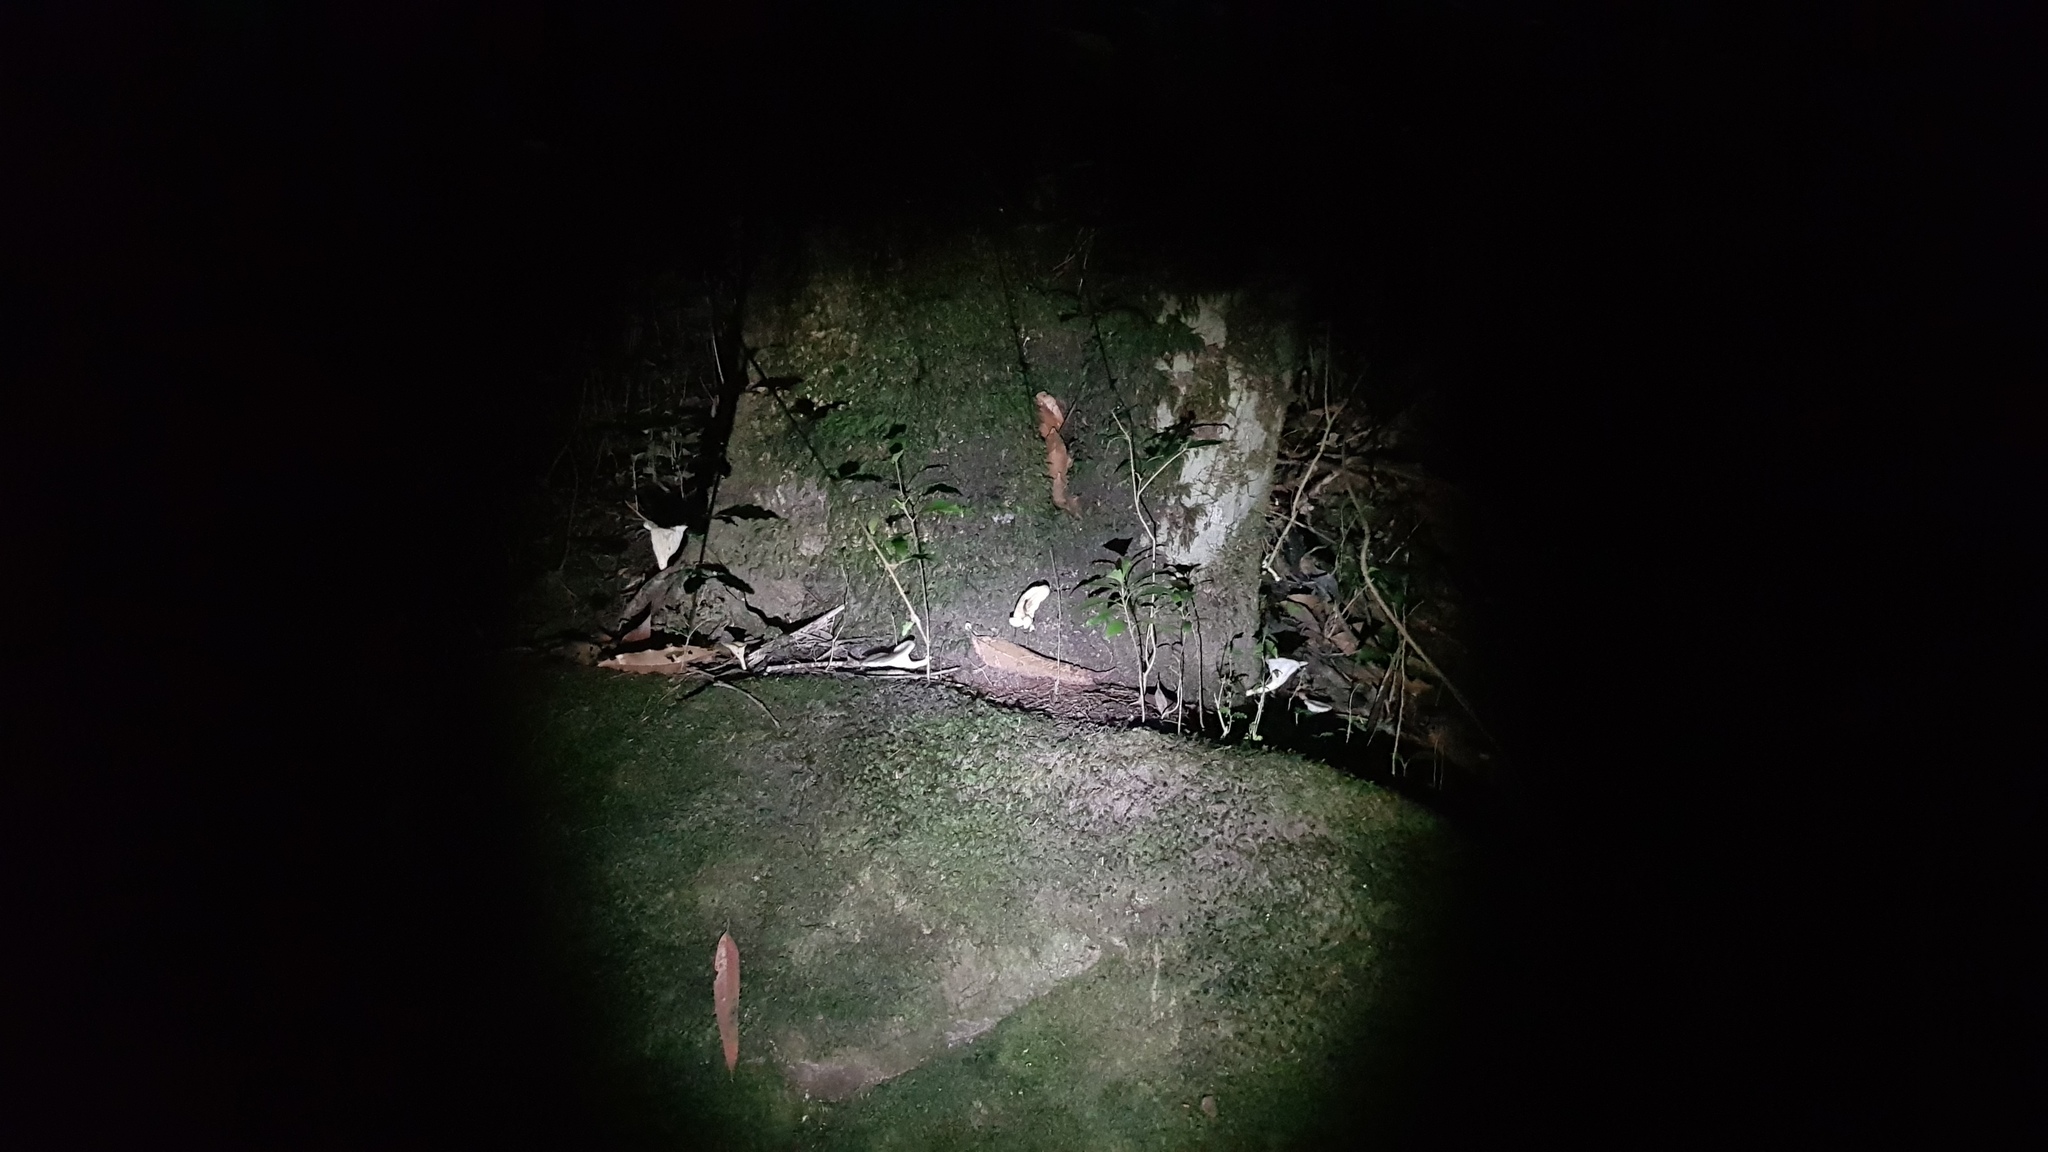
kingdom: Fungi
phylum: Basidiomycota
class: Agaricomycetes
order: Agaricales
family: Omphalotaceae
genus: Omphalotus
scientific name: Omphalotus nidiformis
